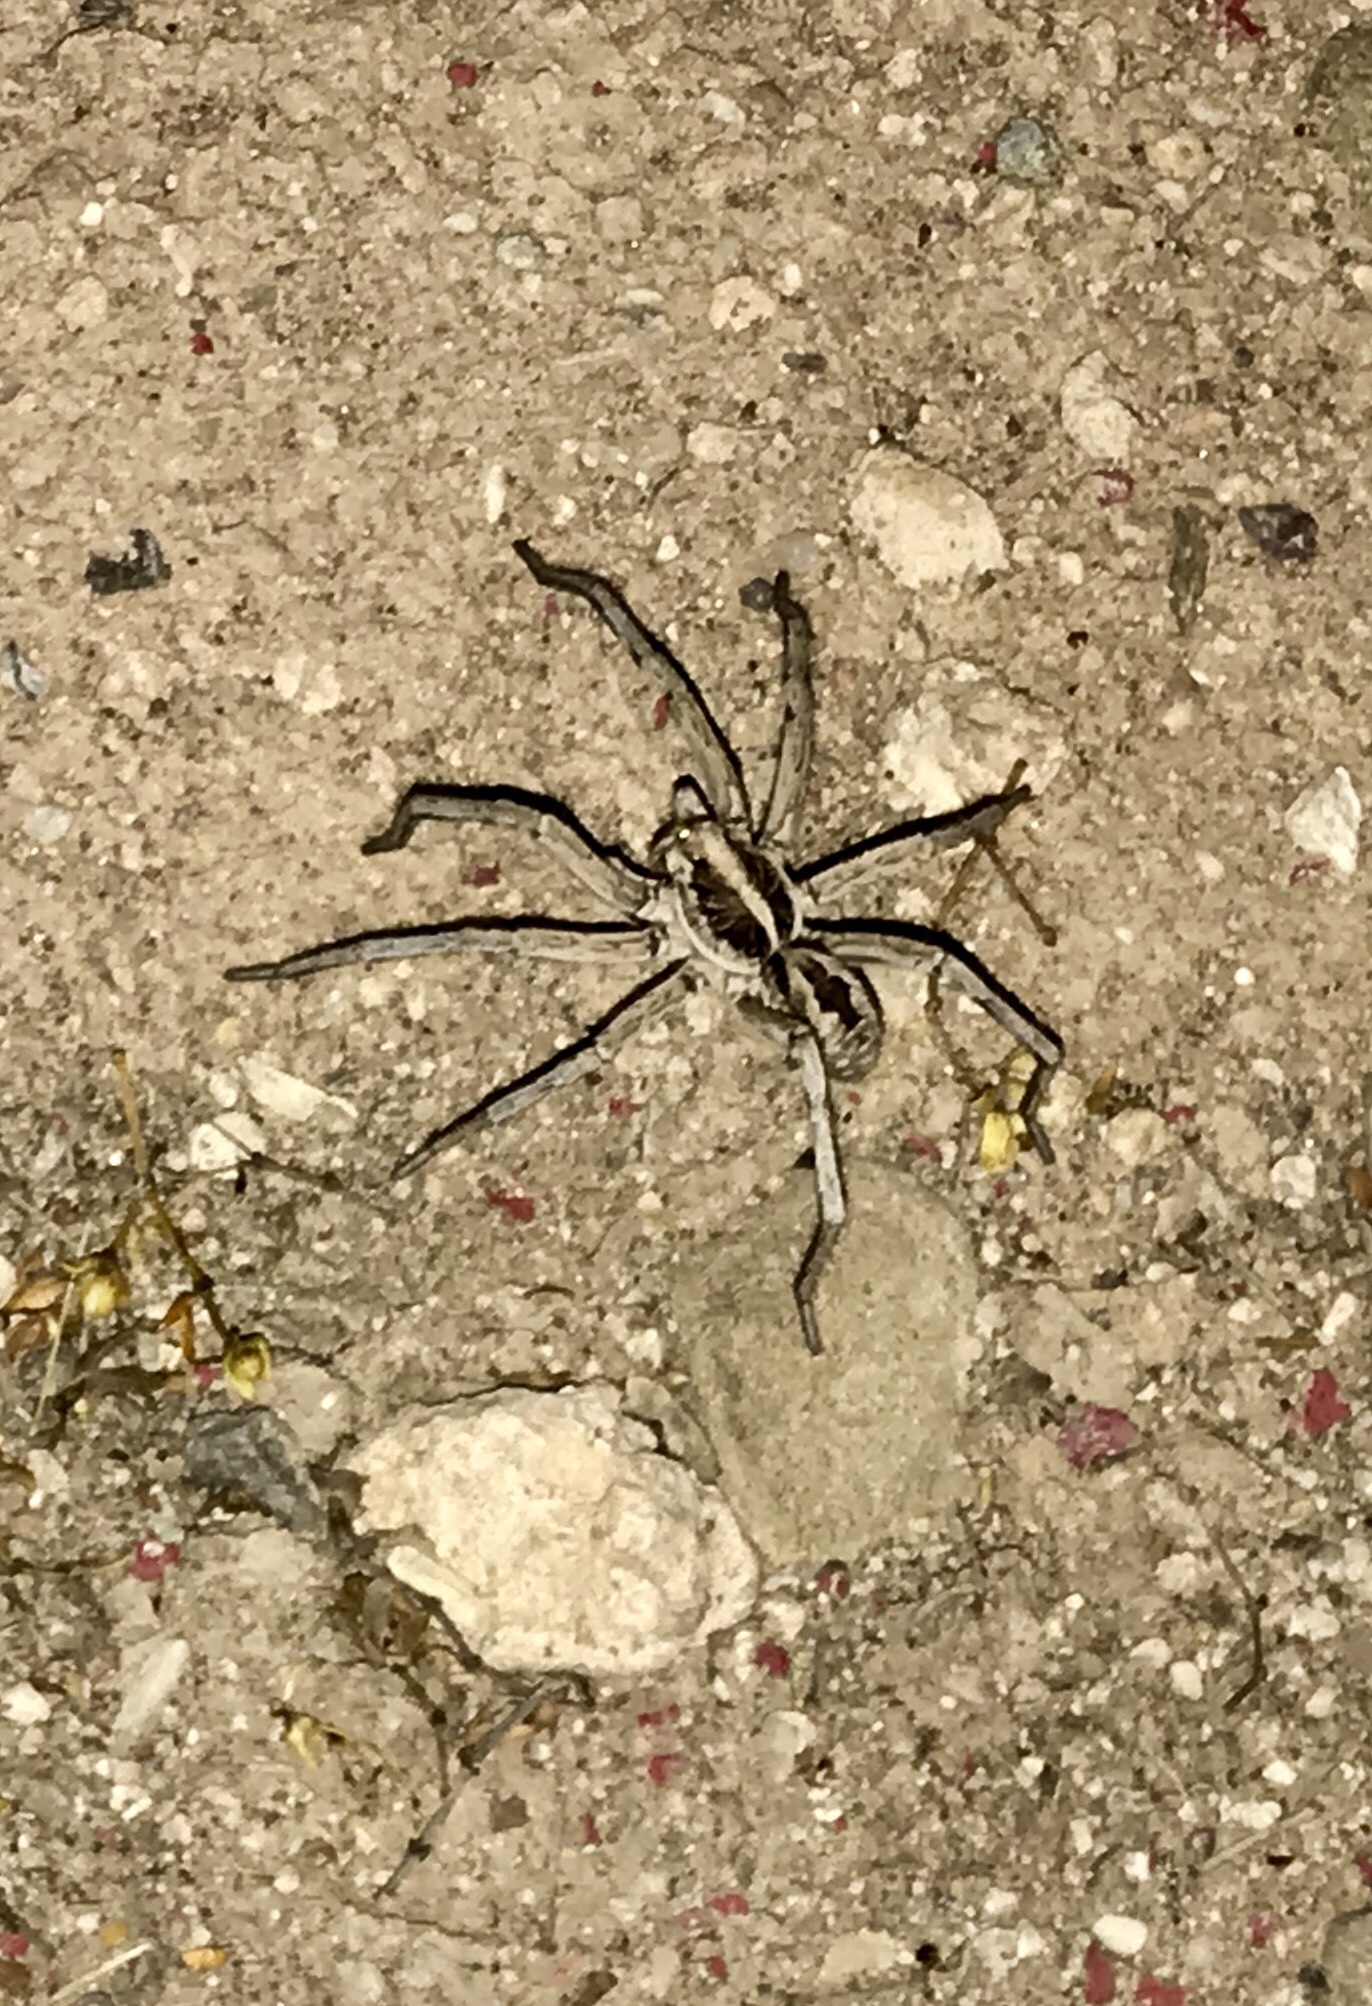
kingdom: Animalia
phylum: Arthropoda
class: Arachnida
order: Araneae
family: Lycosidae
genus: Hogna
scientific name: Hogna carolinensis
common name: Carolina wolf spider
